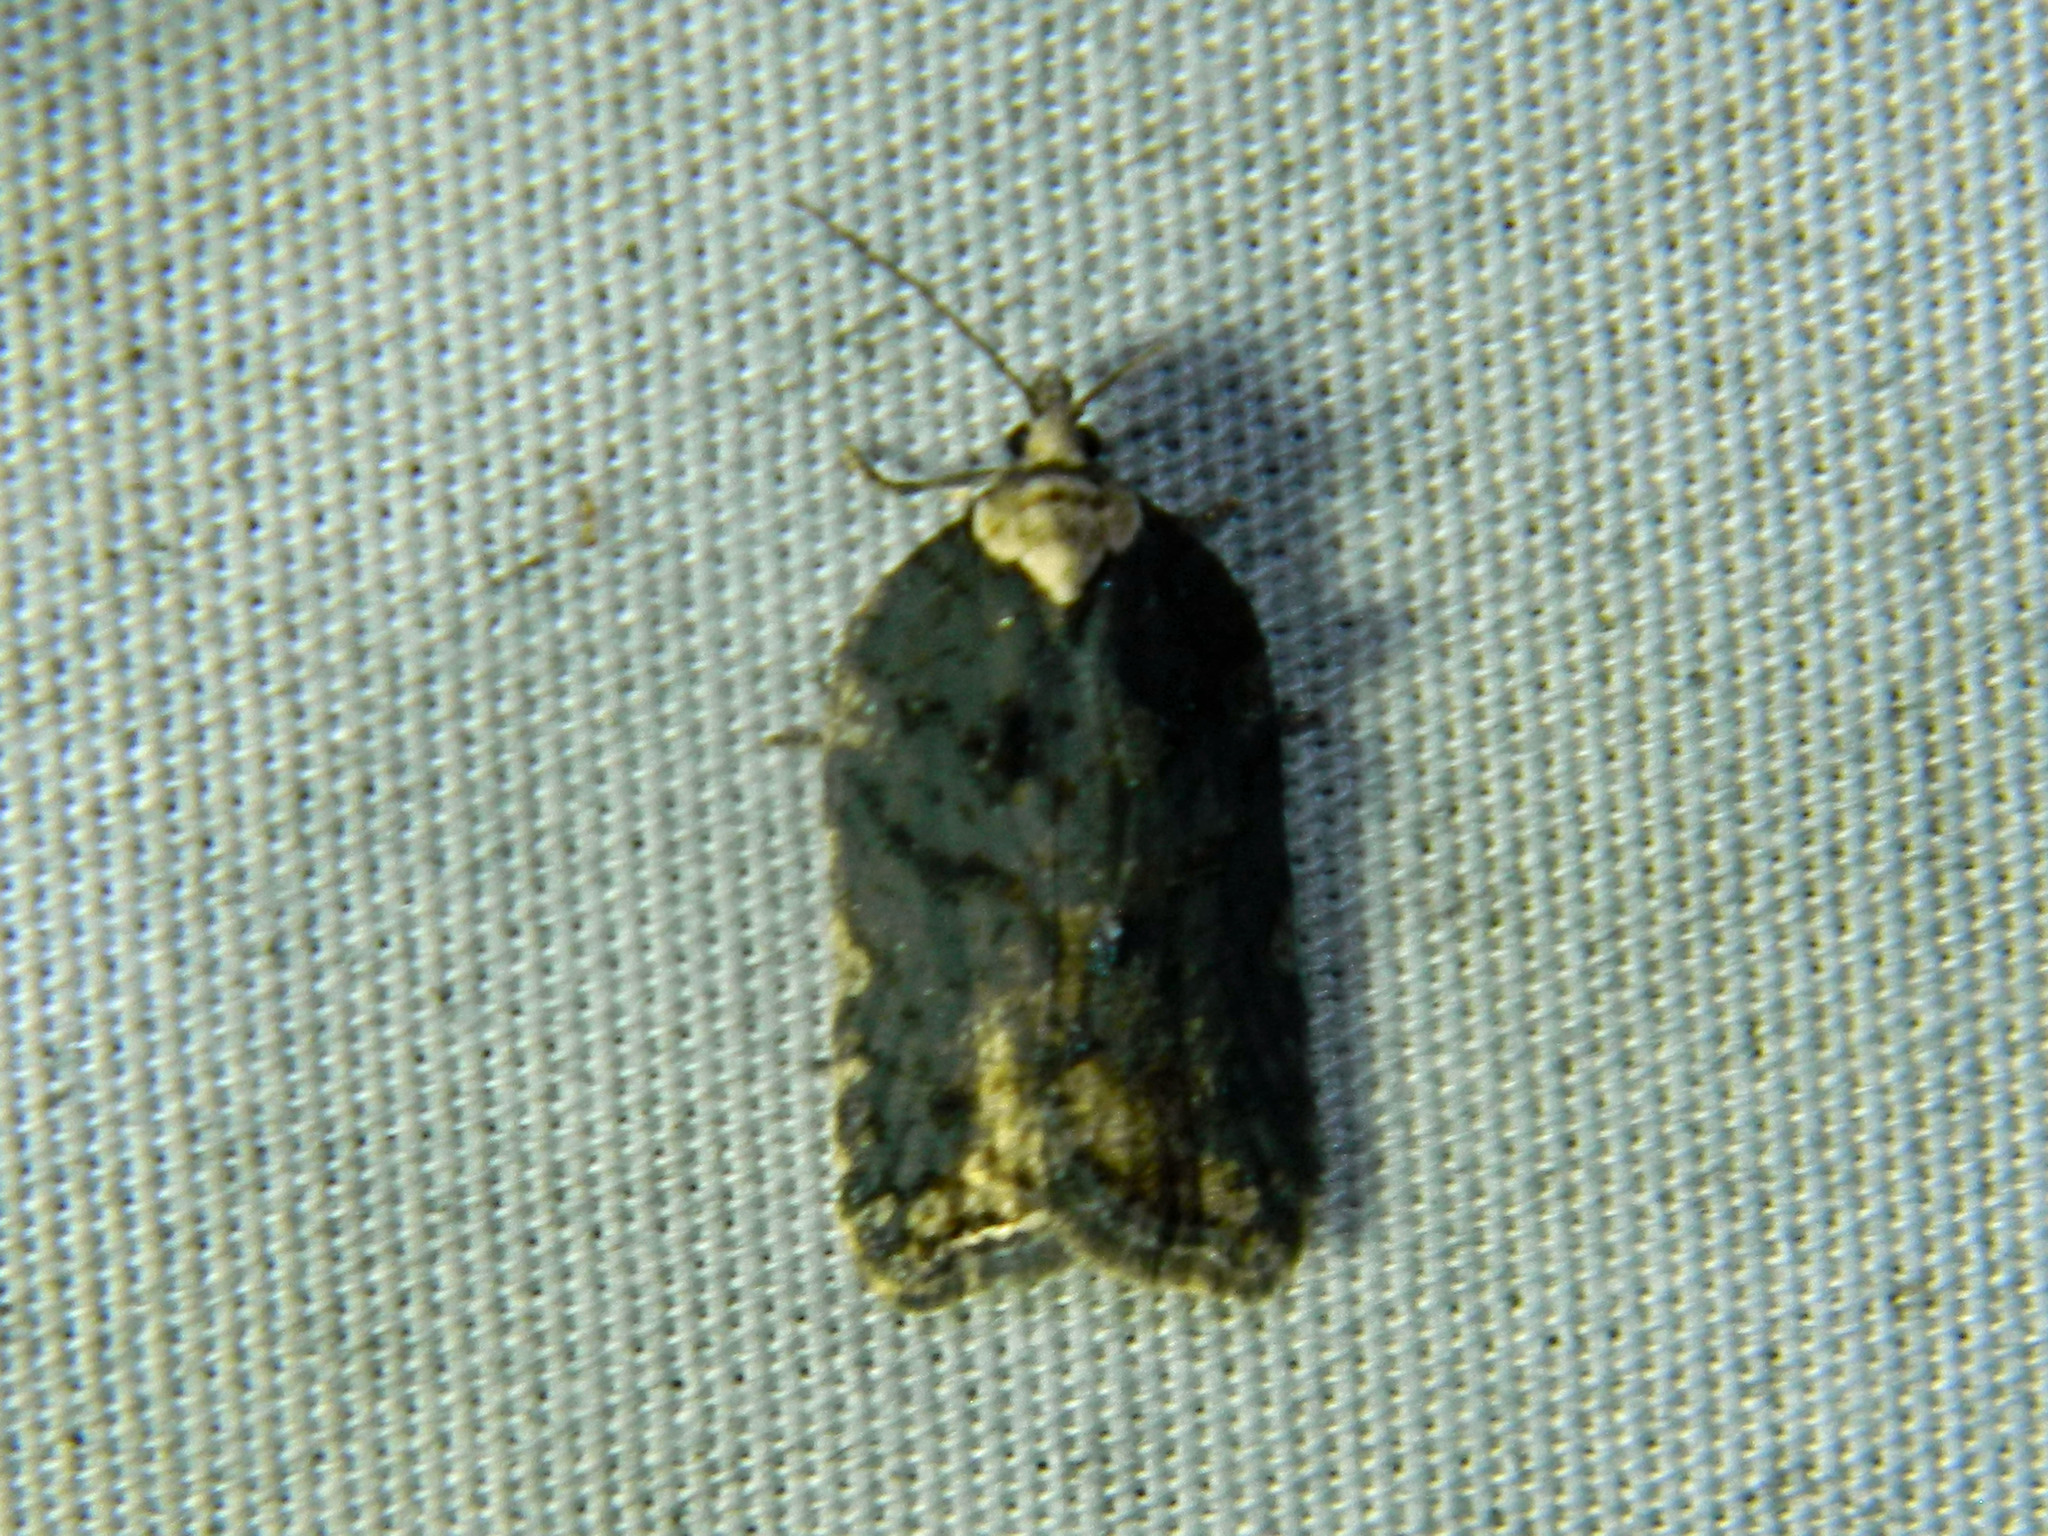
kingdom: Animalia
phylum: Arthropoda
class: Insecta
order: Lepidoptera
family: Tortricidae
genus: Acleris
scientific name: Acleris flavivittana
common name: Multiform leafroller moth
